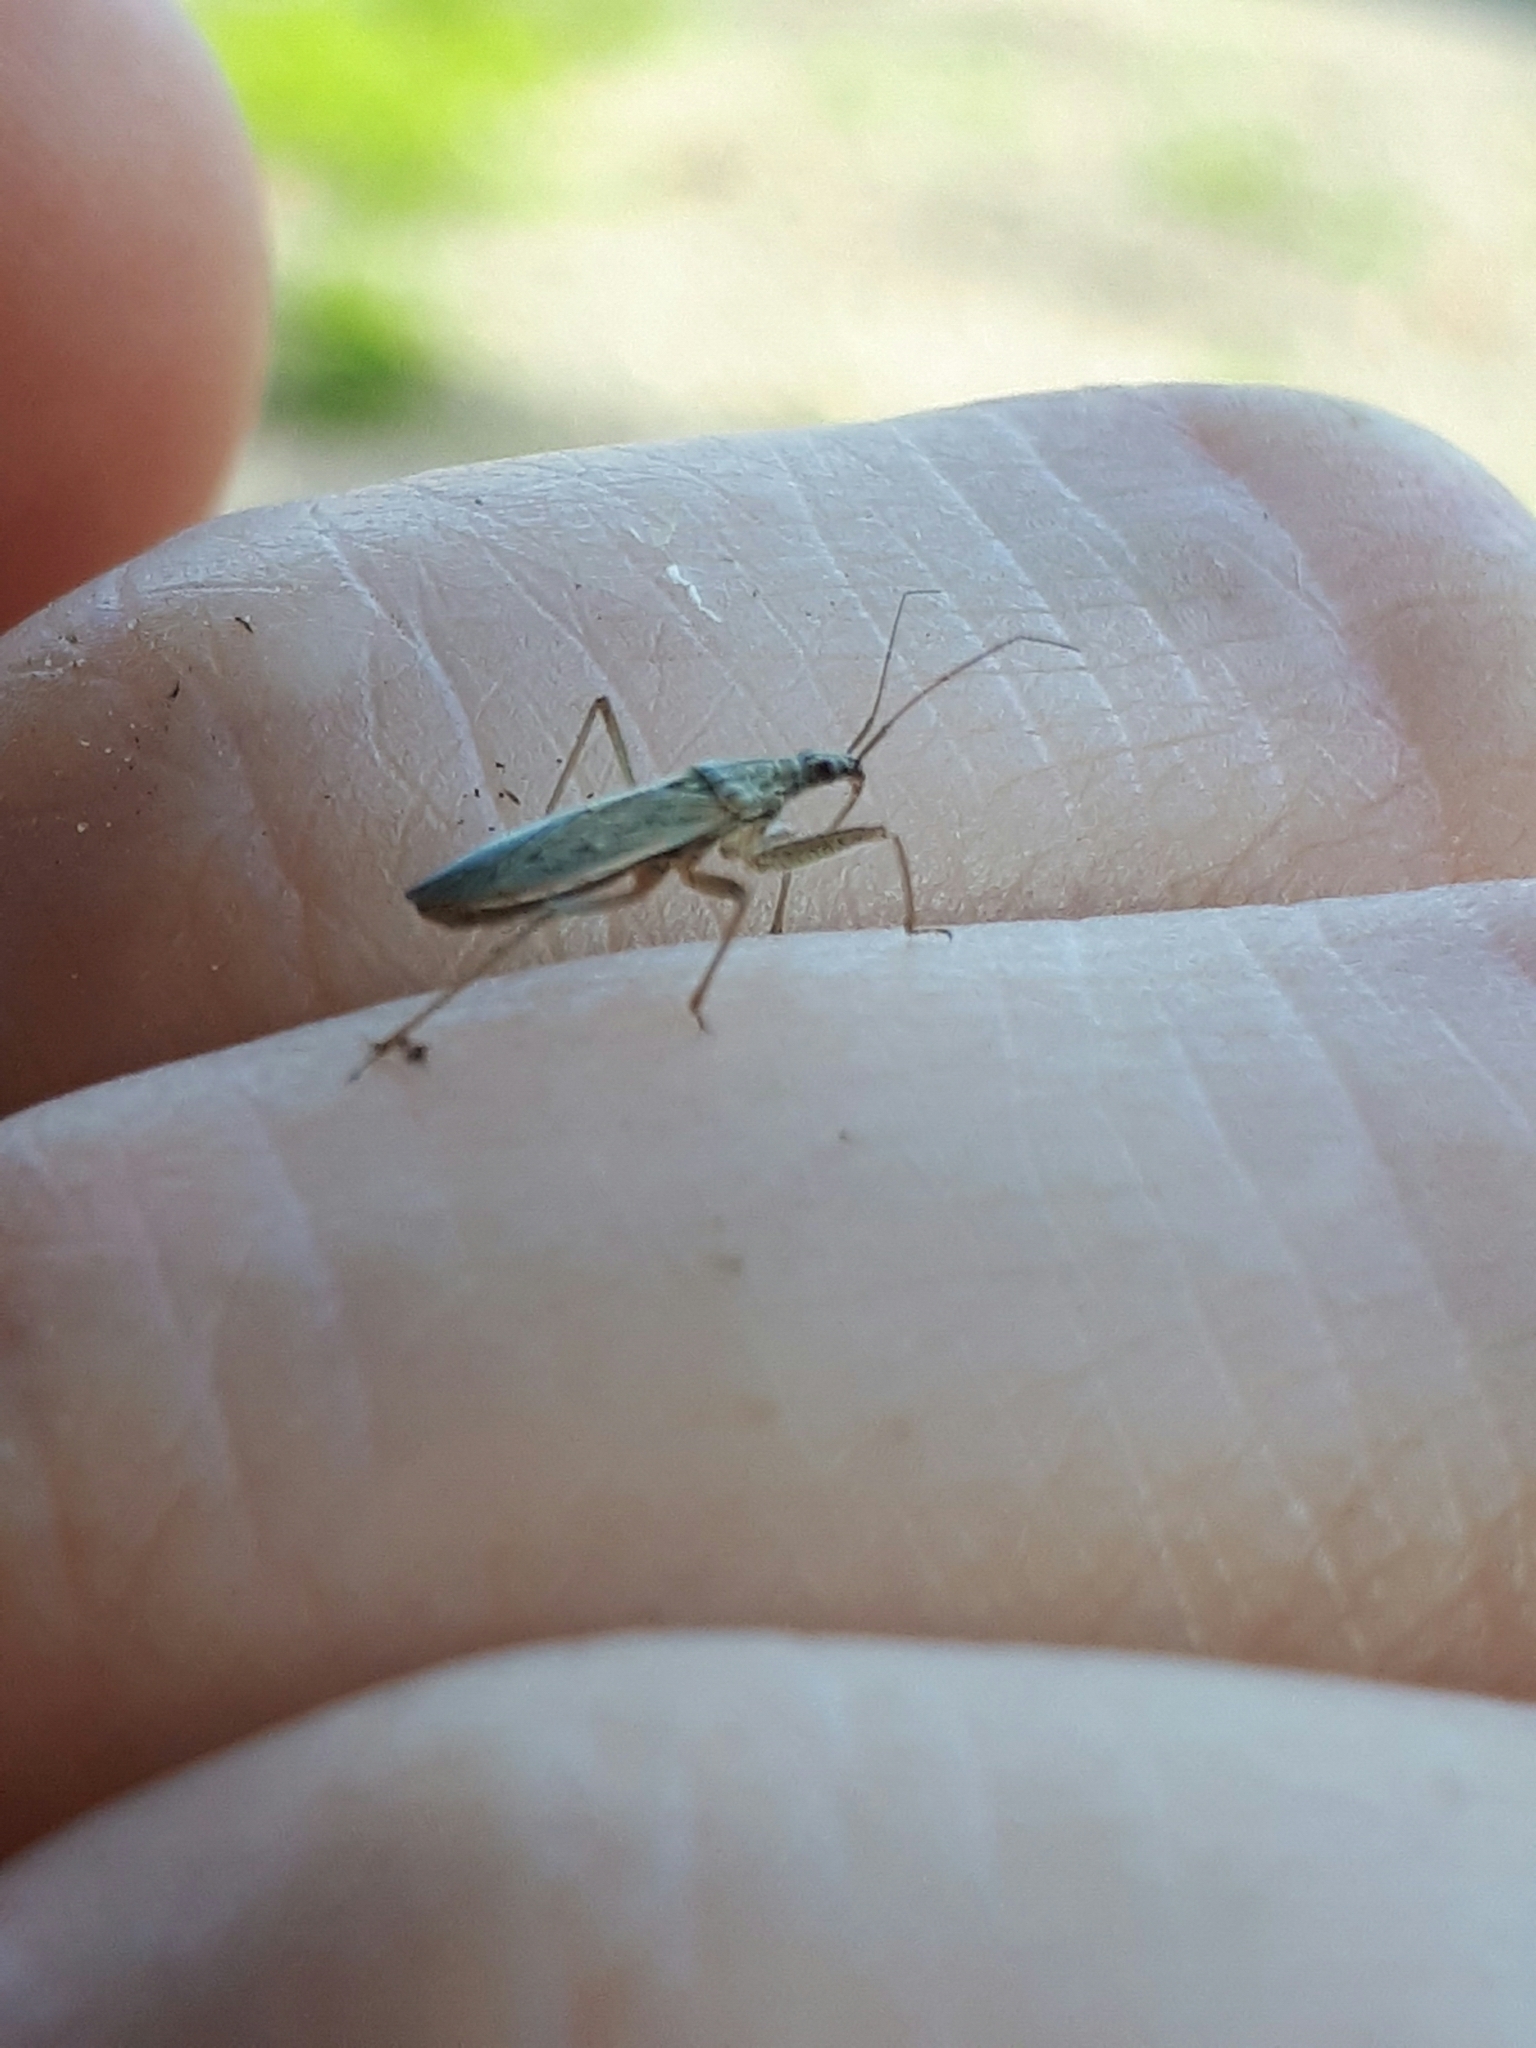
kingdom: Animalia
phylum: Arthropoda
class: Insecta
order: Hemiptera
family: Nabidae
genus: Nabis
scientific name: Nabis americoferus
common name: Common damsel bug
